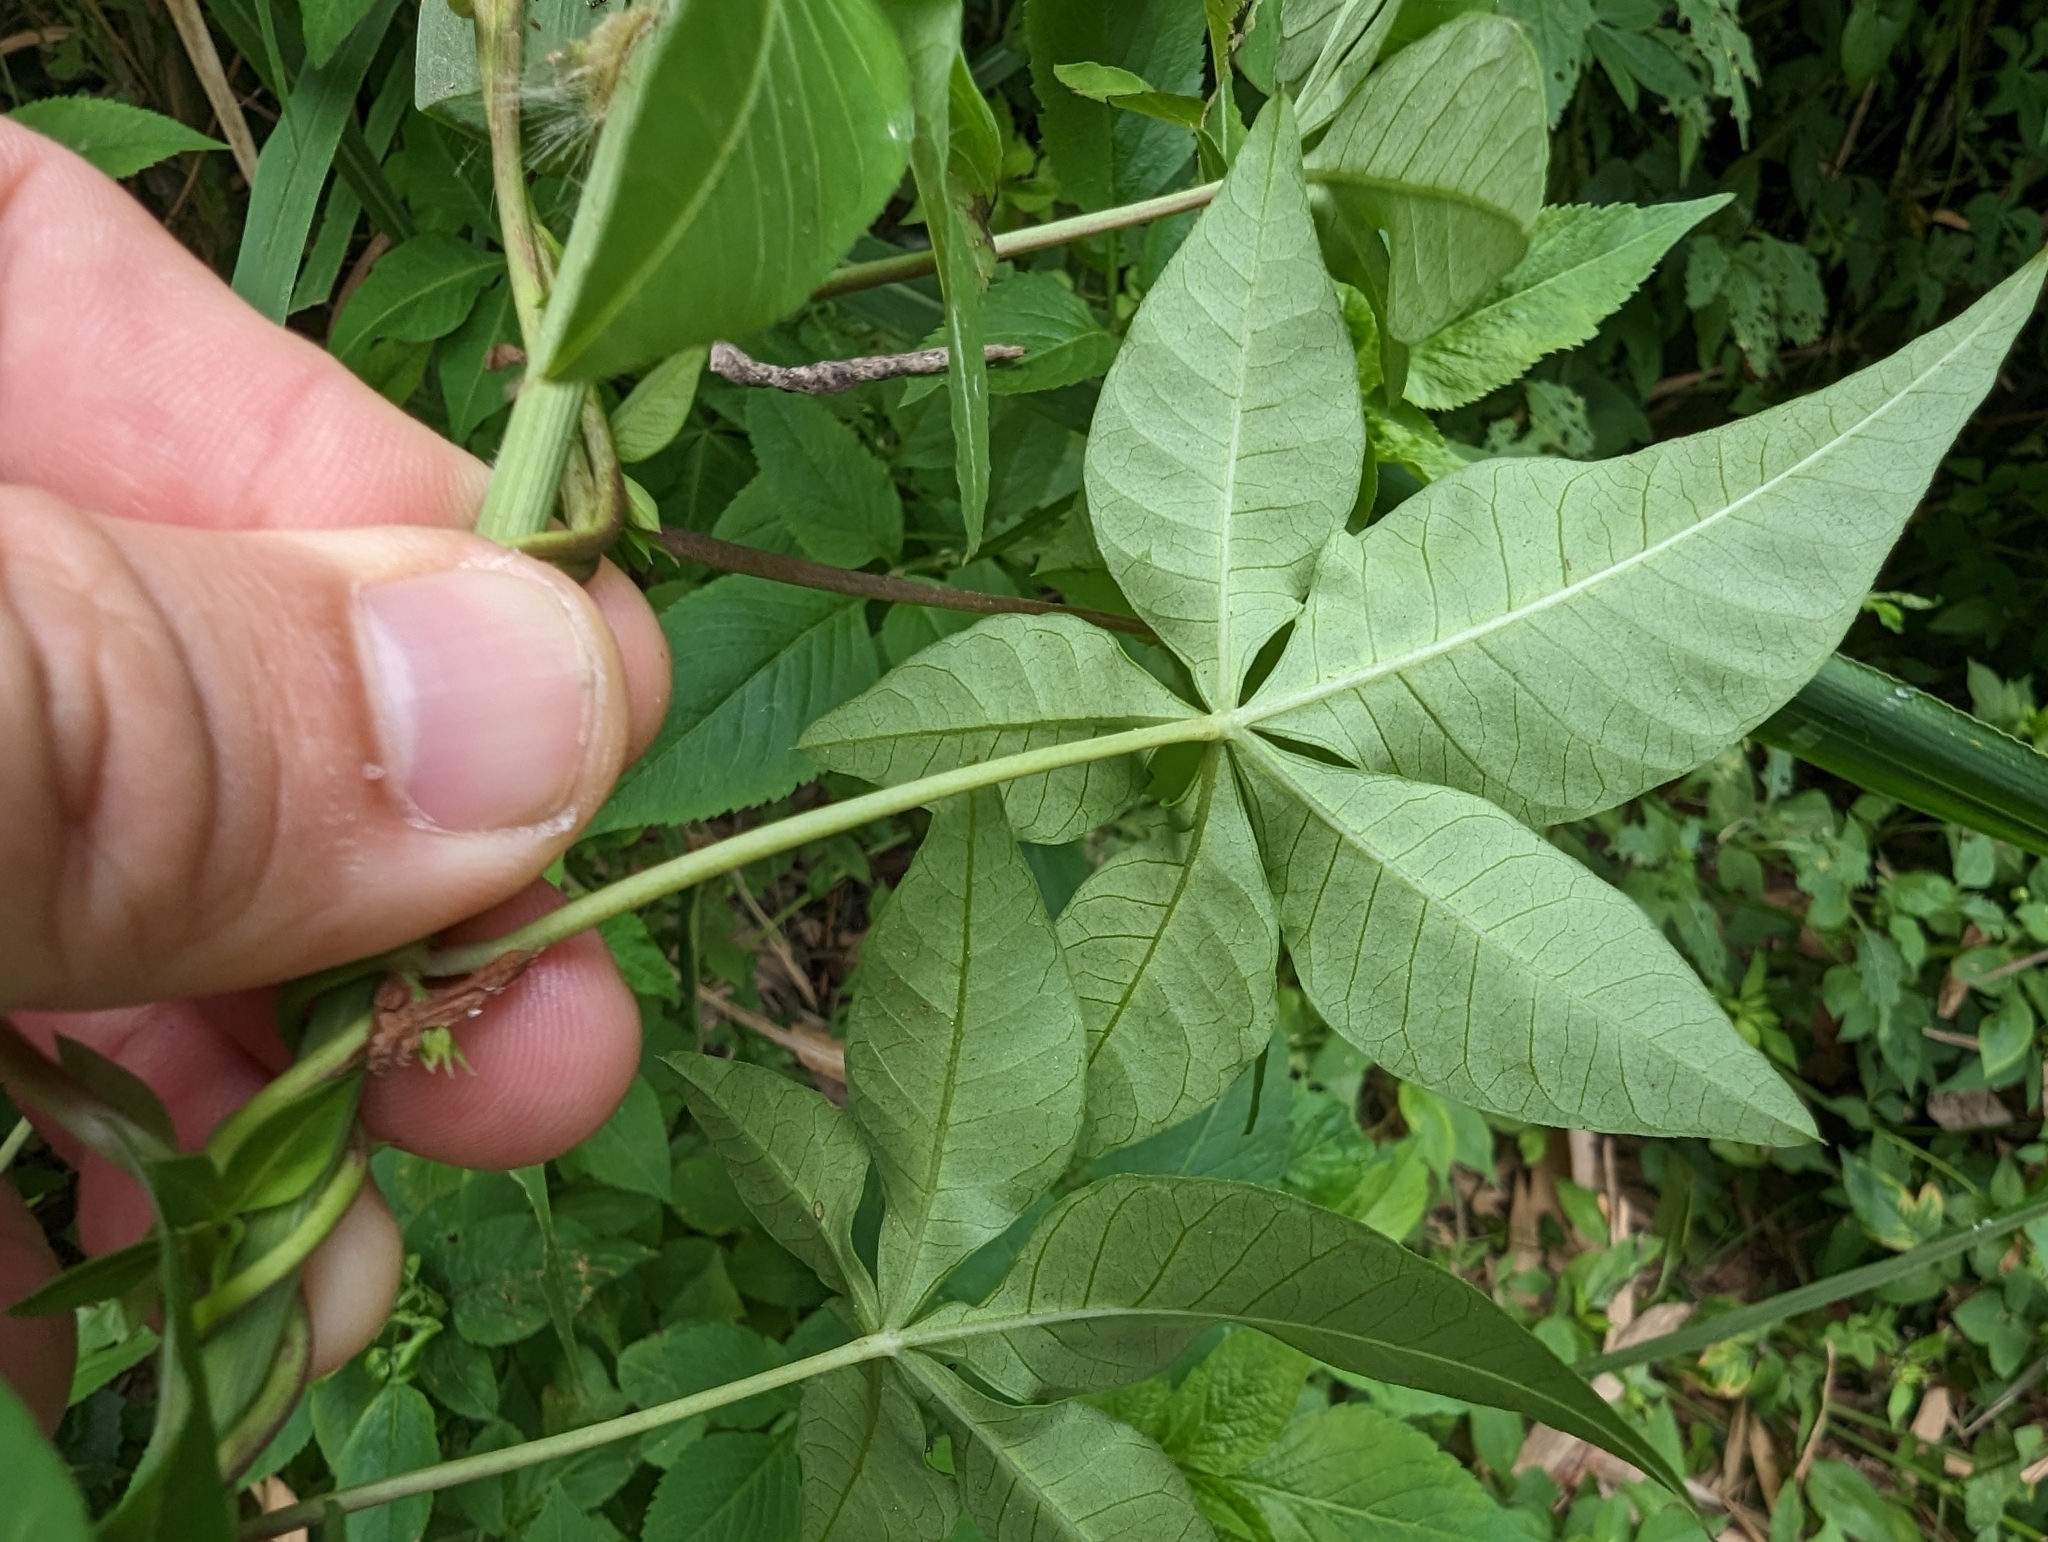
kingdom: Plantae
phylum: Tracheophyta
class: Magnoliopsida
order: Solanales
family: Convolvulaceae
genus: Ipomoea
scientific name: Ipomoea cairica
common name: Mile a minute vine
